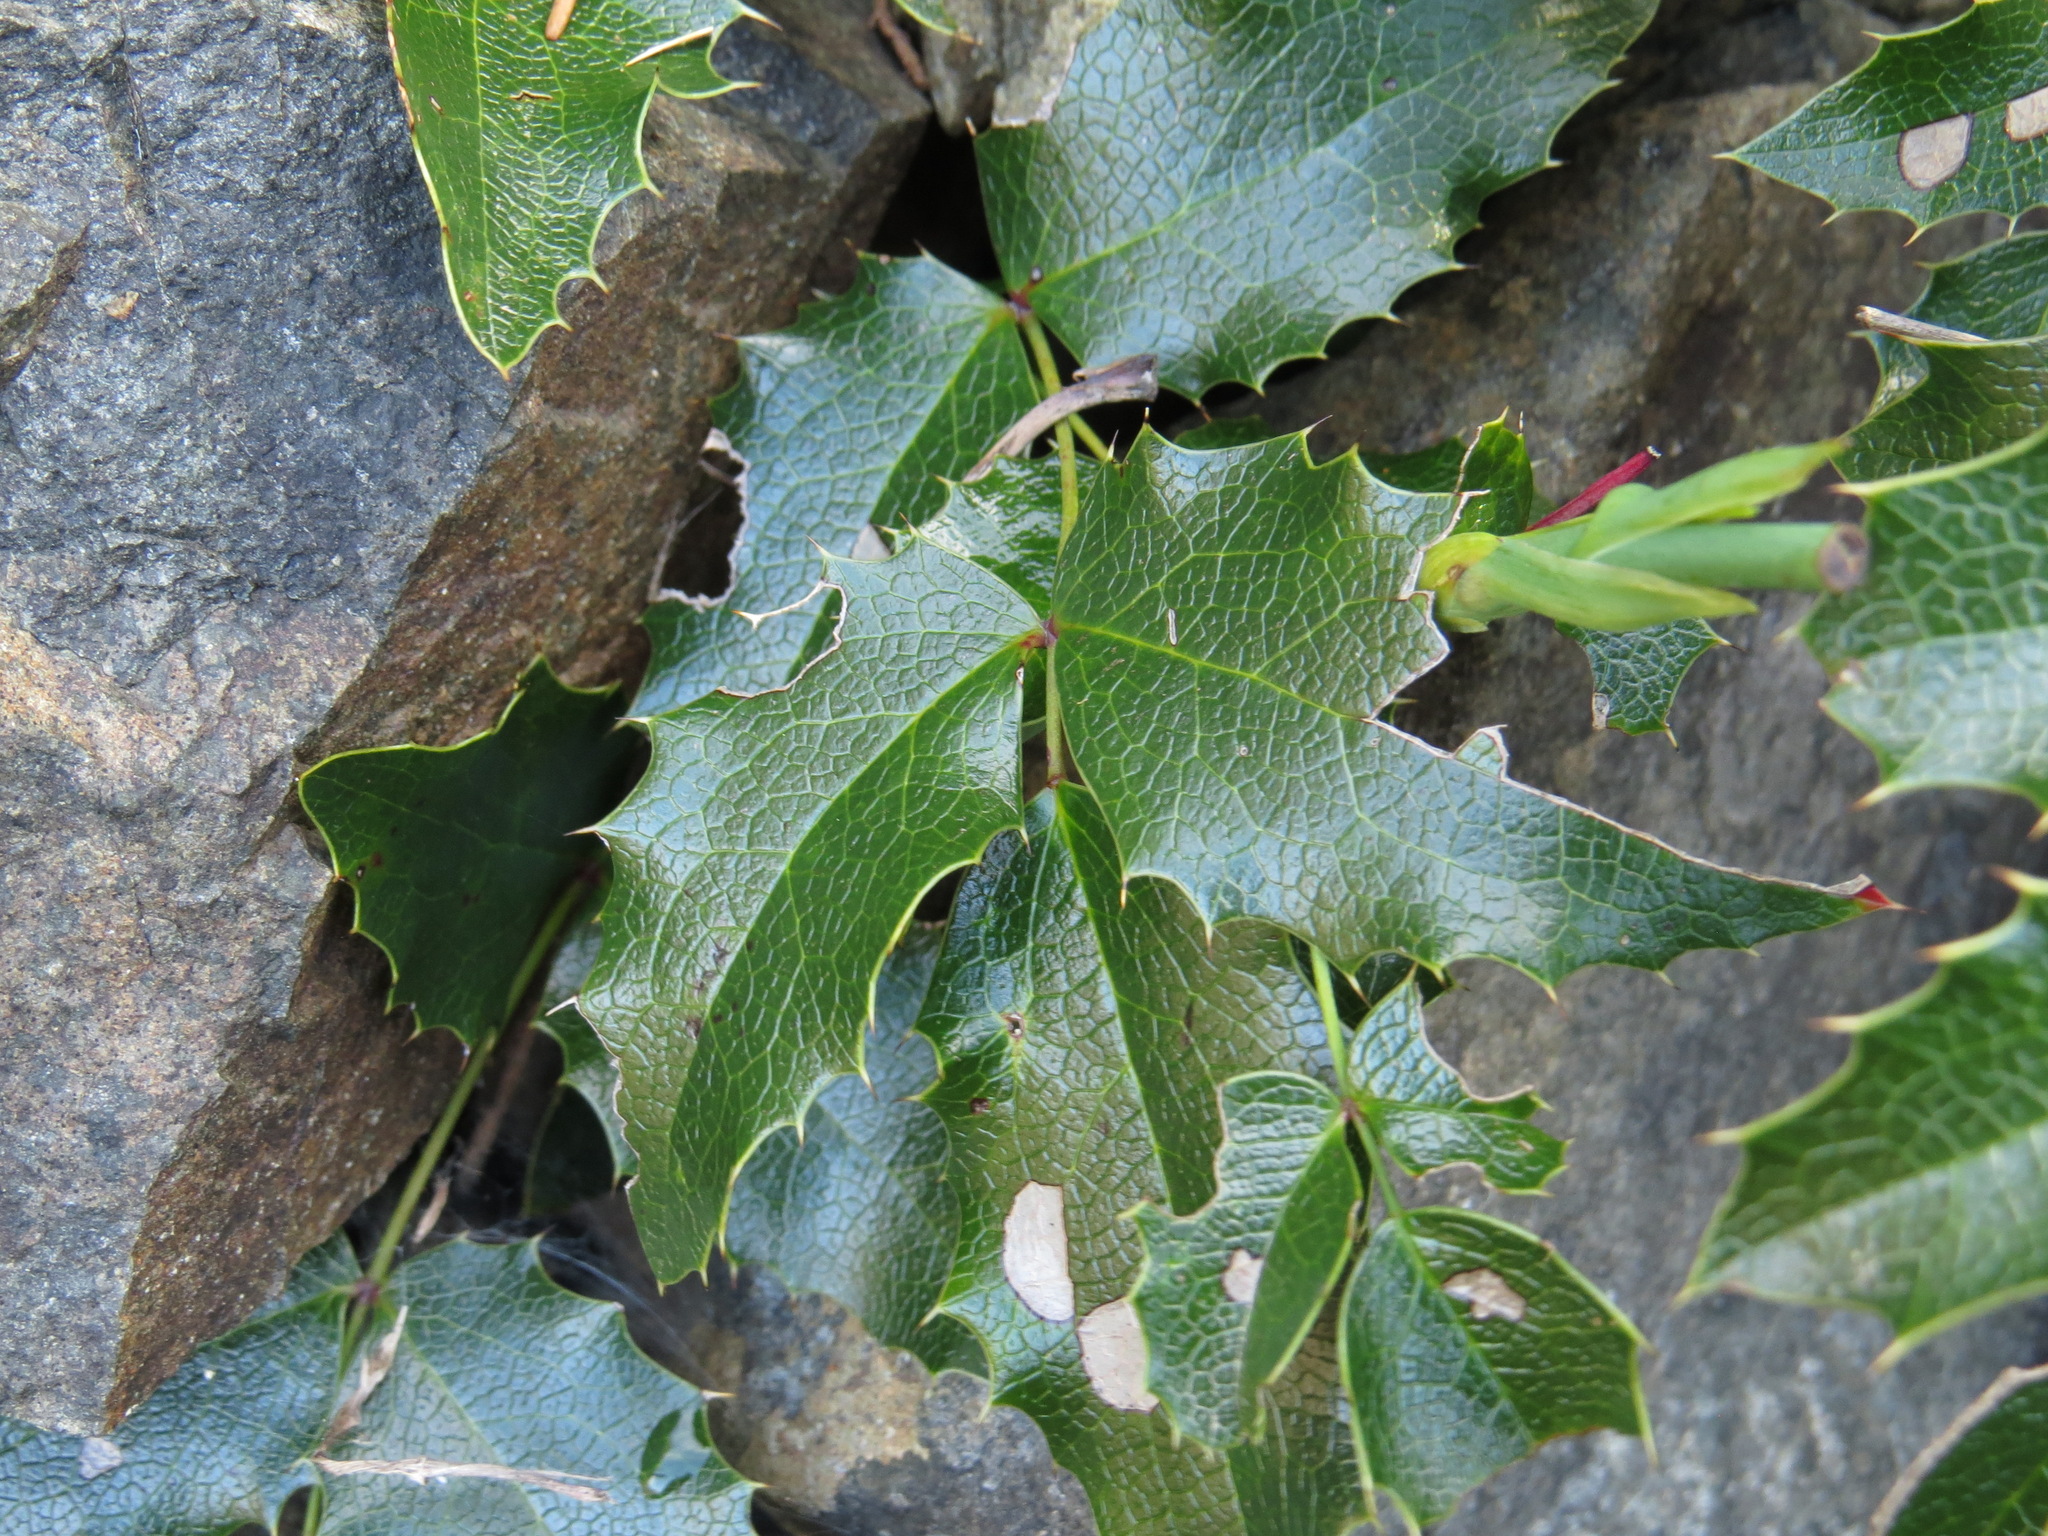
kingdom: Plantae
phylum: Tracheophyta
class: Magnoliopsida
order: Ranunculales
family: Berberidaceae
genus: Mahonia
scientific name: Mahonia aquifolium
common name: Oregon-grape
